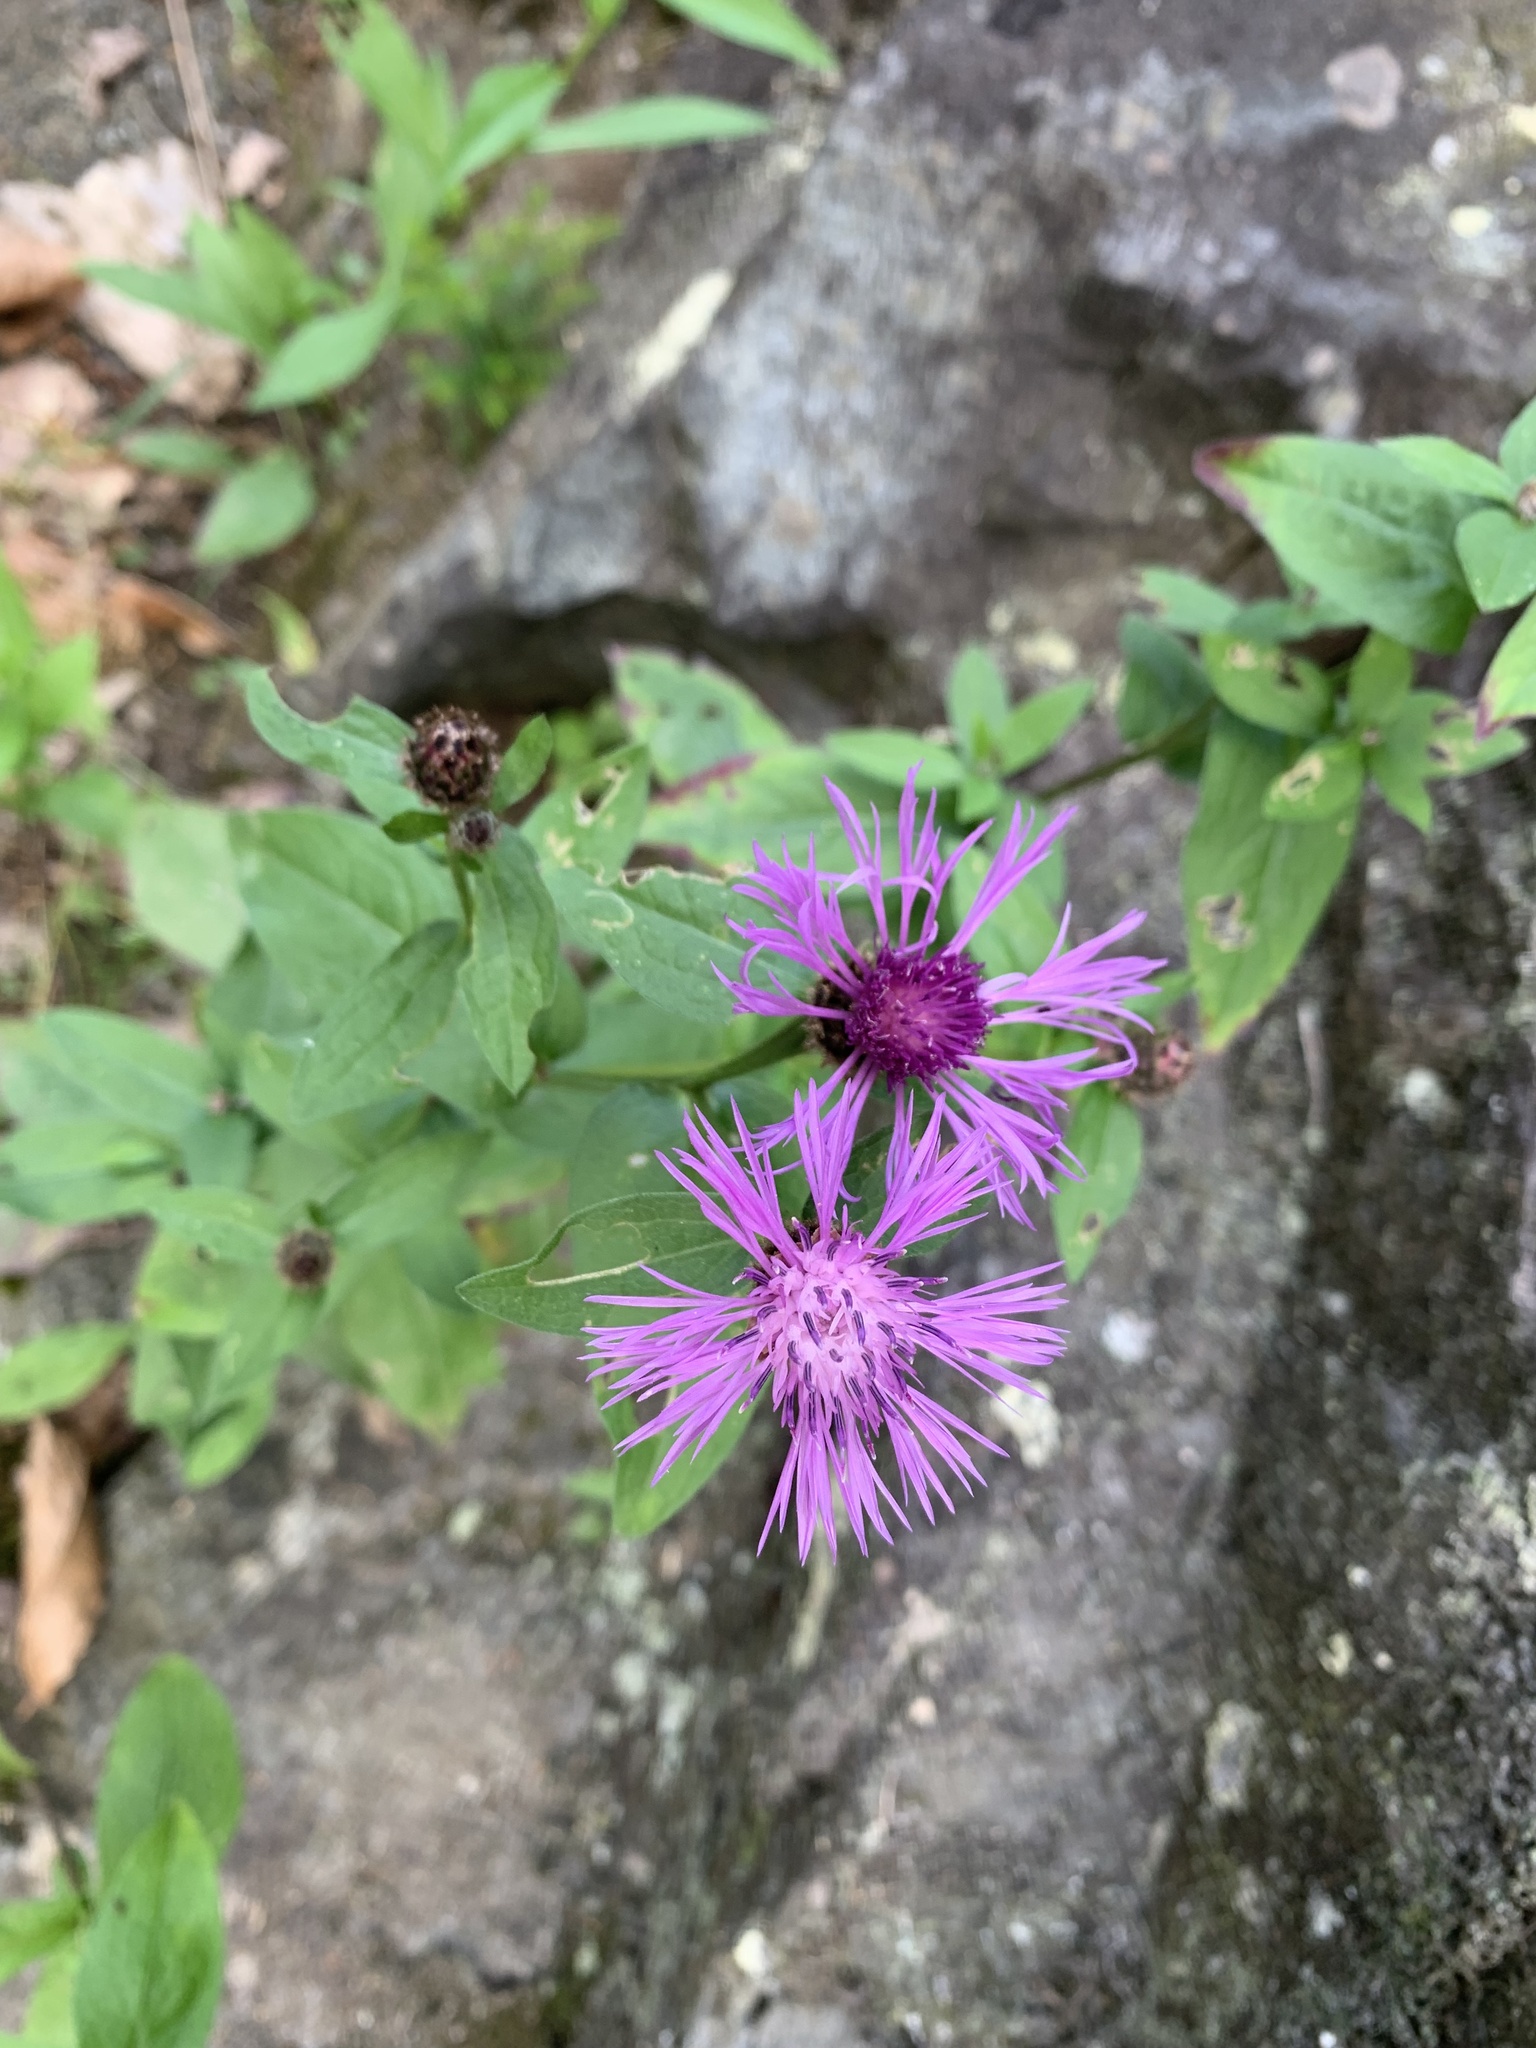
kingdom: Plantae
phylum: Tracheophyta
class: Magnoliopsida
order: Asterales
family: Asteraceae
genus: Centaurea
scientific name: Centaurea nigrescens
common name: Tyrol knapweed
